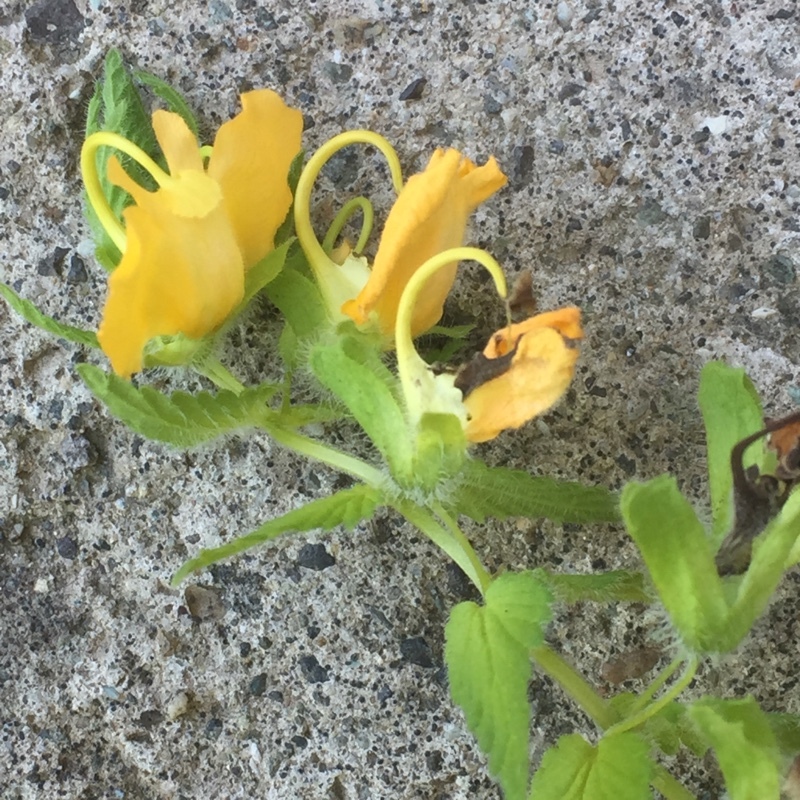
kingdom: Plantae
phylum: Tracheophyta
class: Magnoliopsida
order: Lamiales
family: Orobanchaceae
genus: Rhynchocorys
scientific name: Rhynchocorys orientalis
